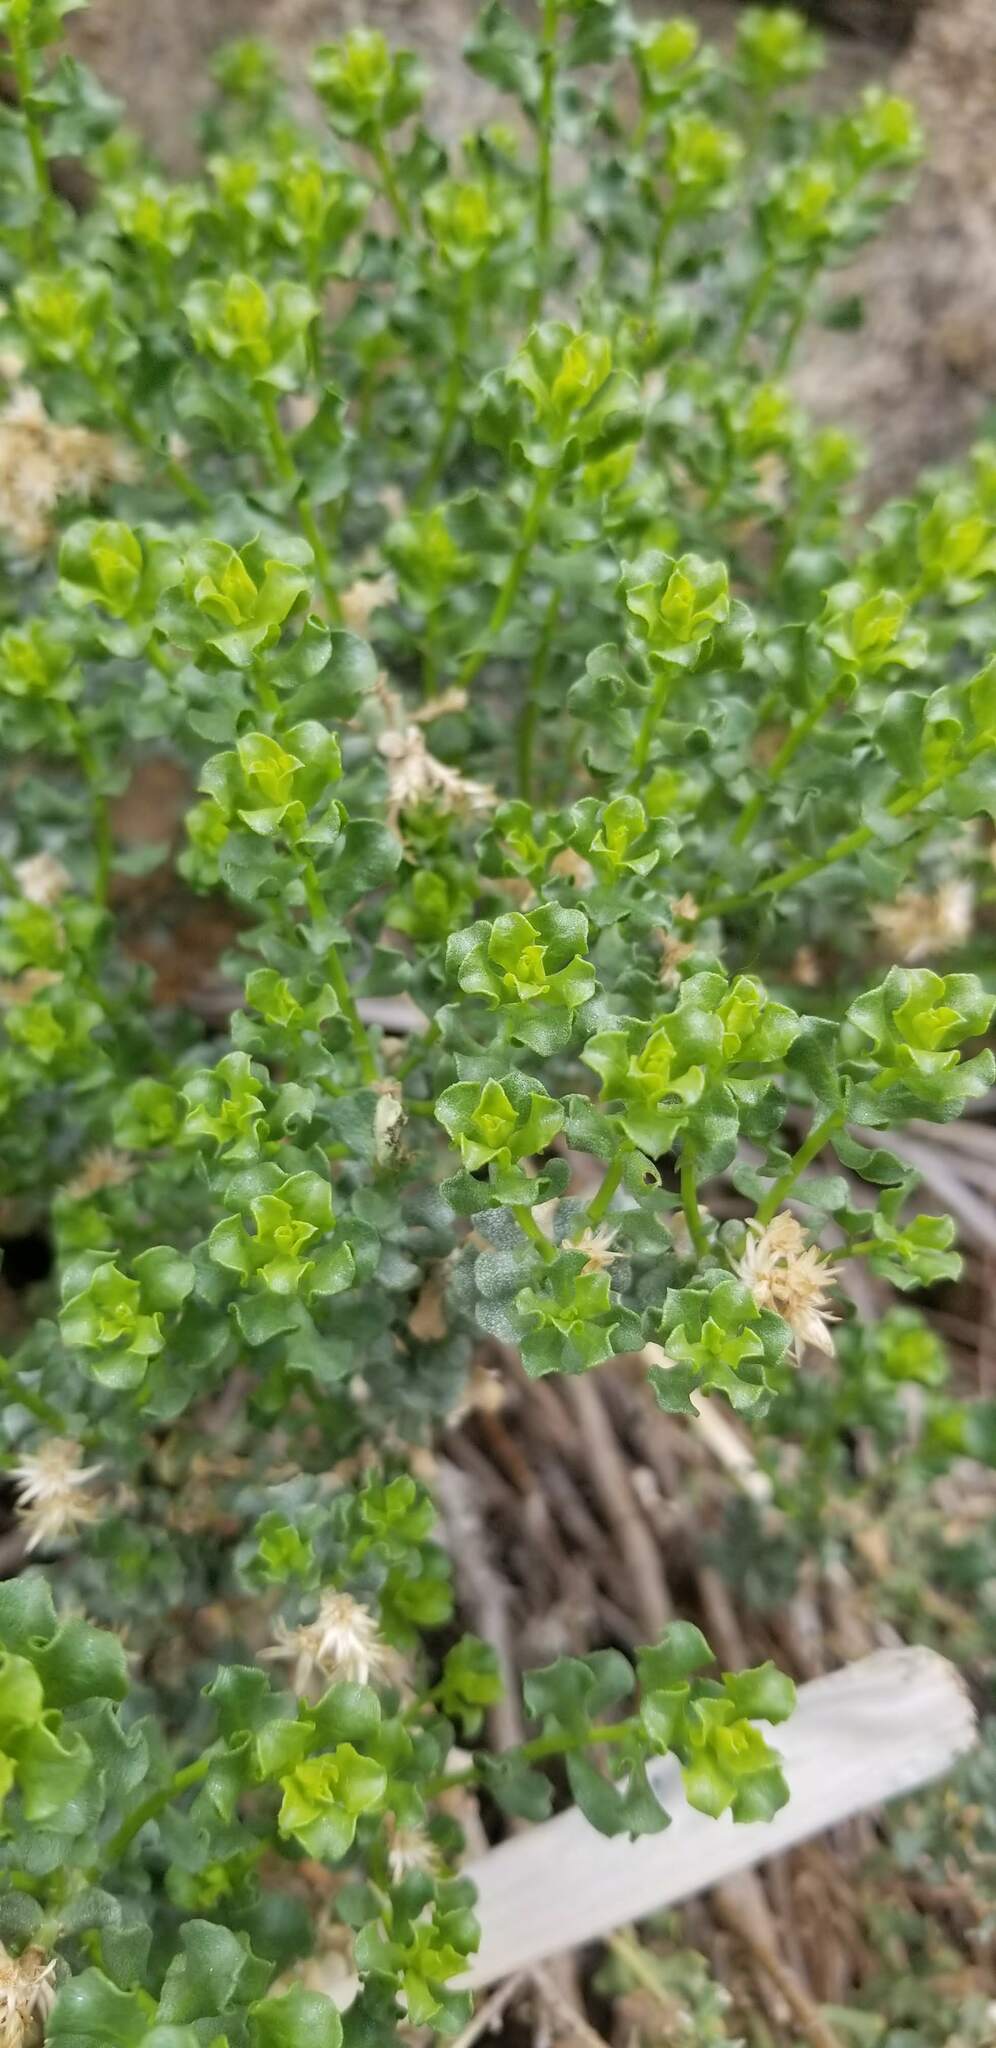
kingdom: Plantae
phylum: Tracheophyta
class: Magnoliopsida
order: Asterales
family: Asteraceae
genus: Ericameria
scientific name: Ericameria cuneata
